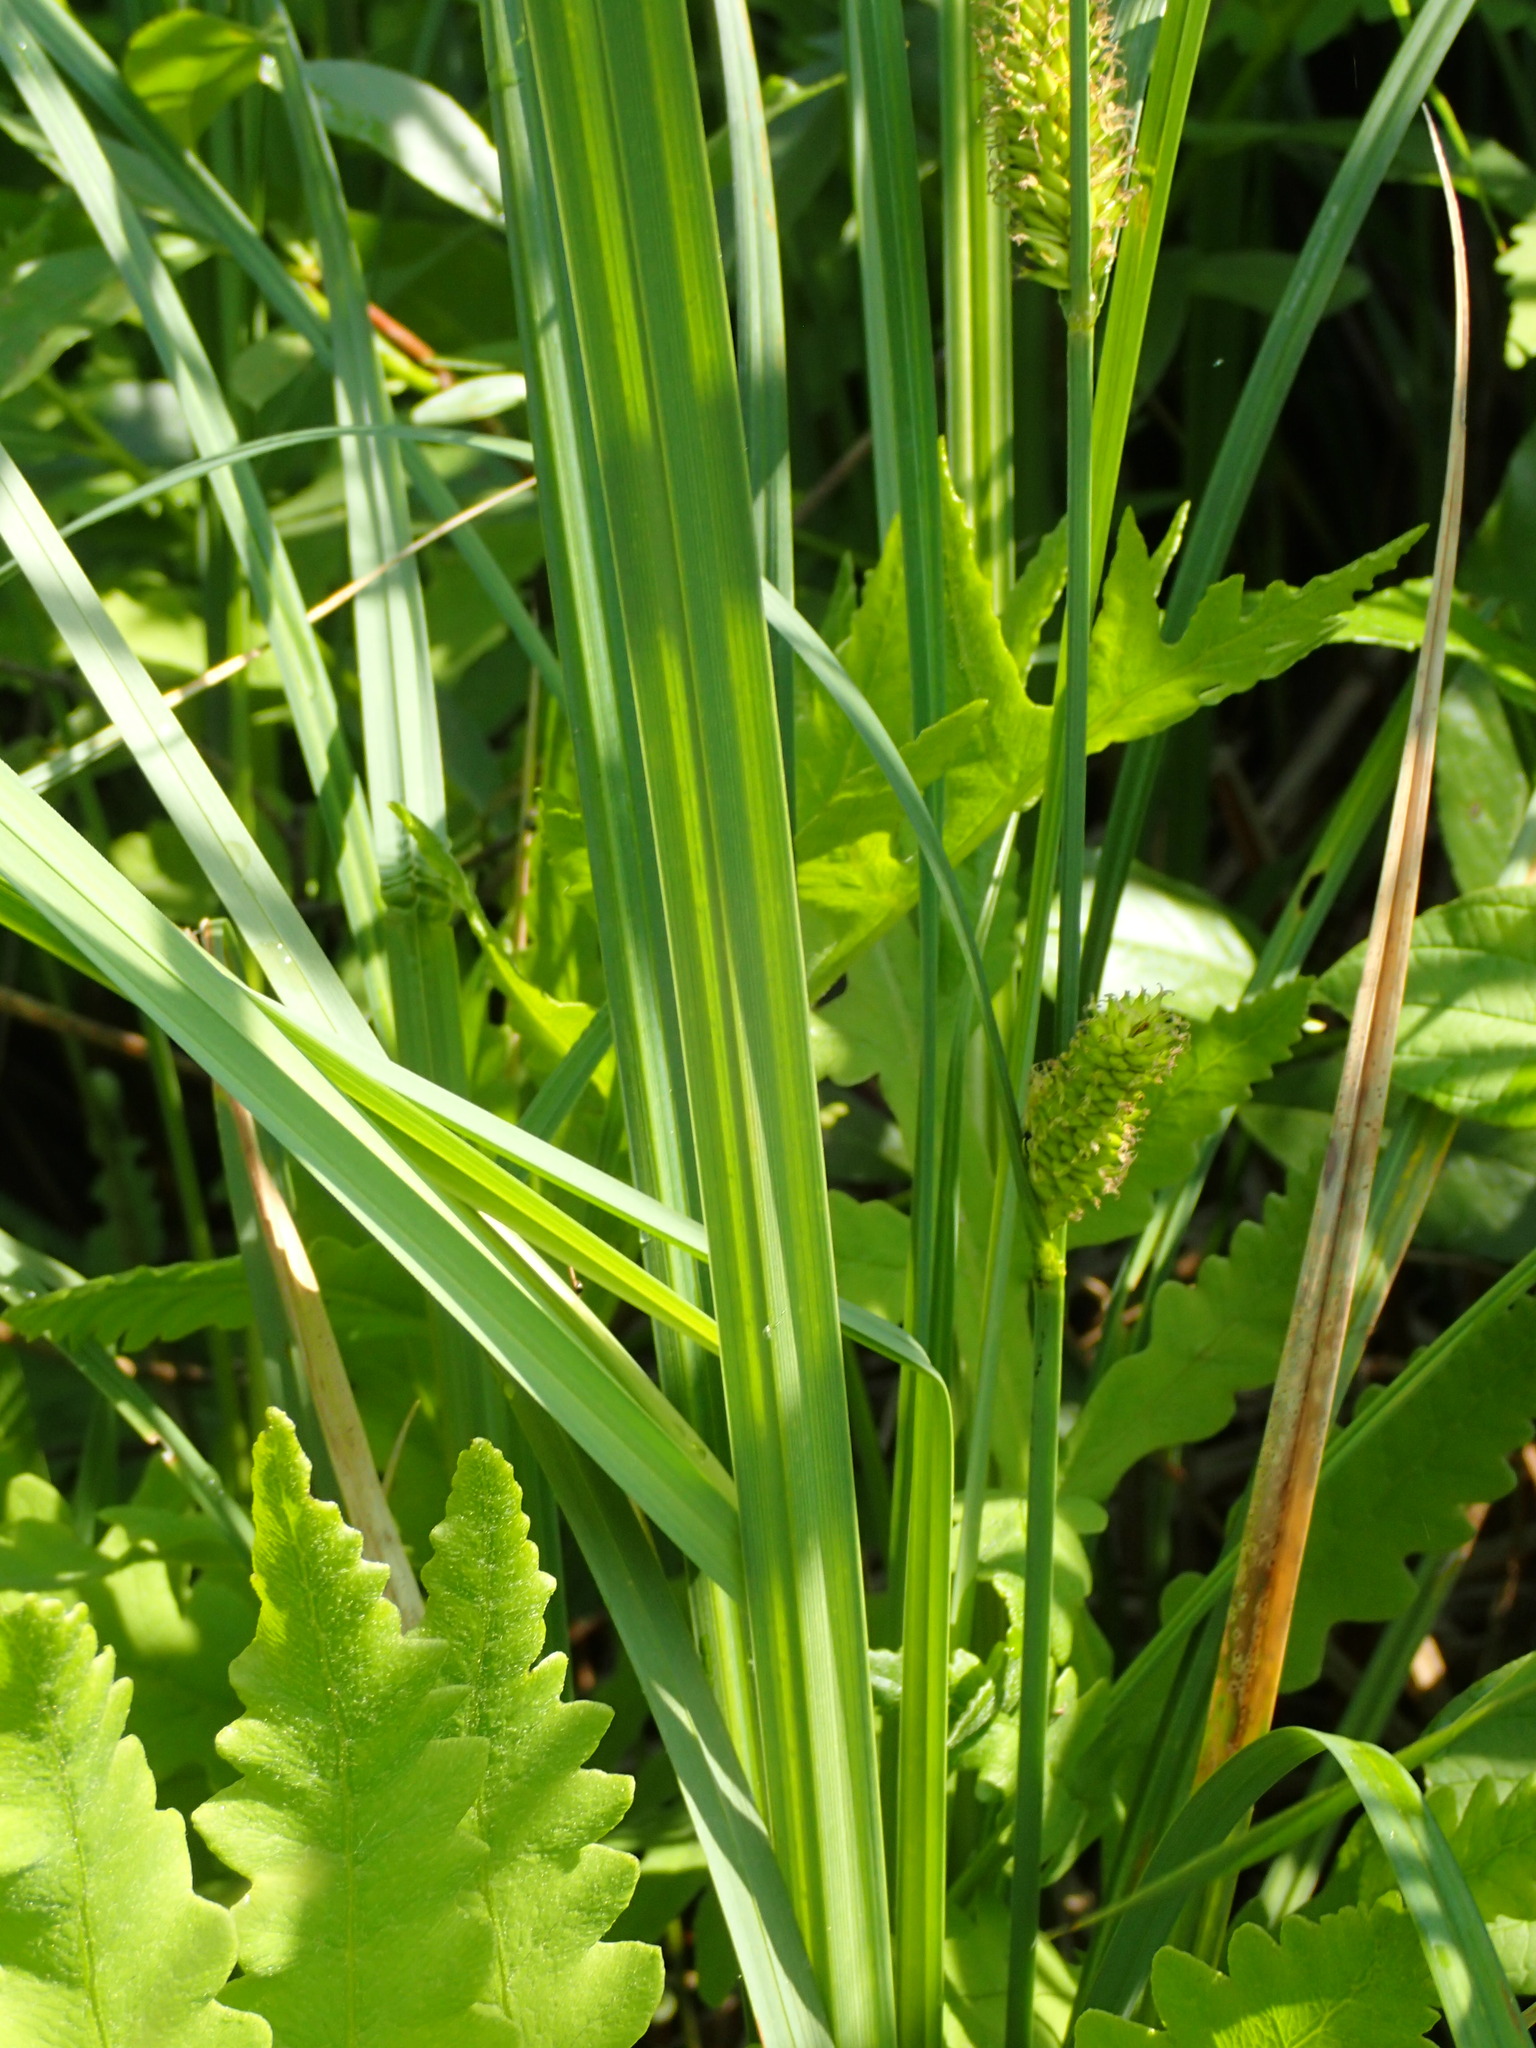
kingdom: Plantae
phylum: Tracheophyta
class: Liliopsida
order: Poales
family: Cyperaceae
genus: Carex
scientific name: Carex lacustris
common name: Common lake sedge
